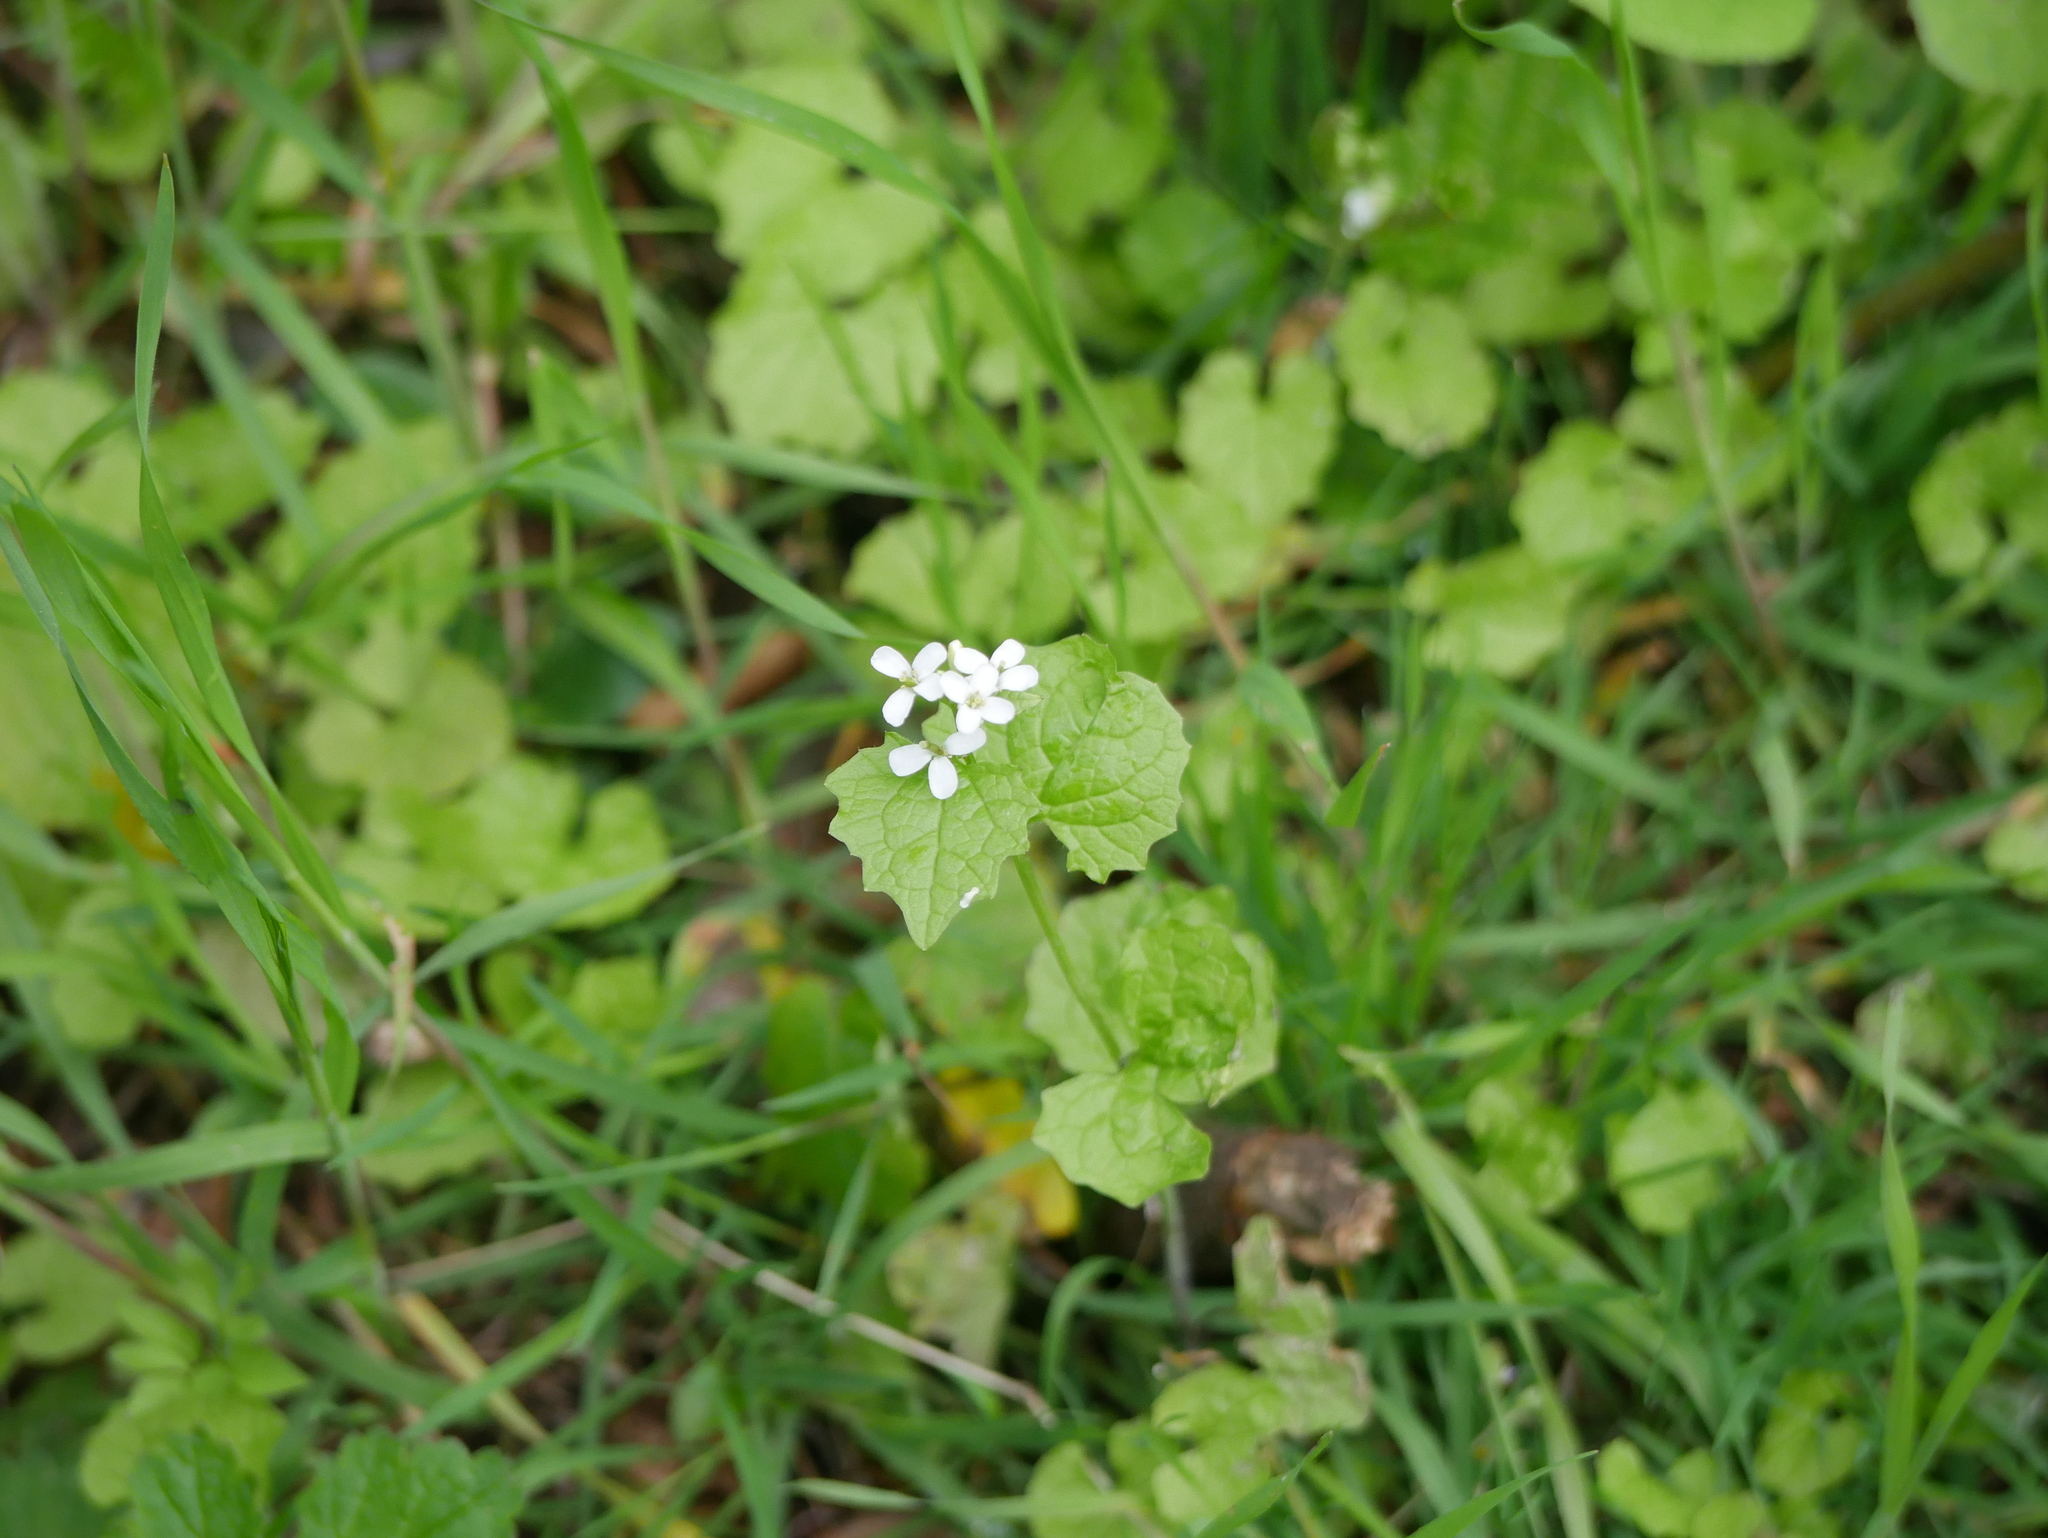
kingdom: Plantae
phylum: Tracheophyta
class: Magnoliopsida
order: Brassicales
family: Brassicaceae
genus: Alliaria
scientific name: Alliaria petiolata
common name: Garlic mustard
